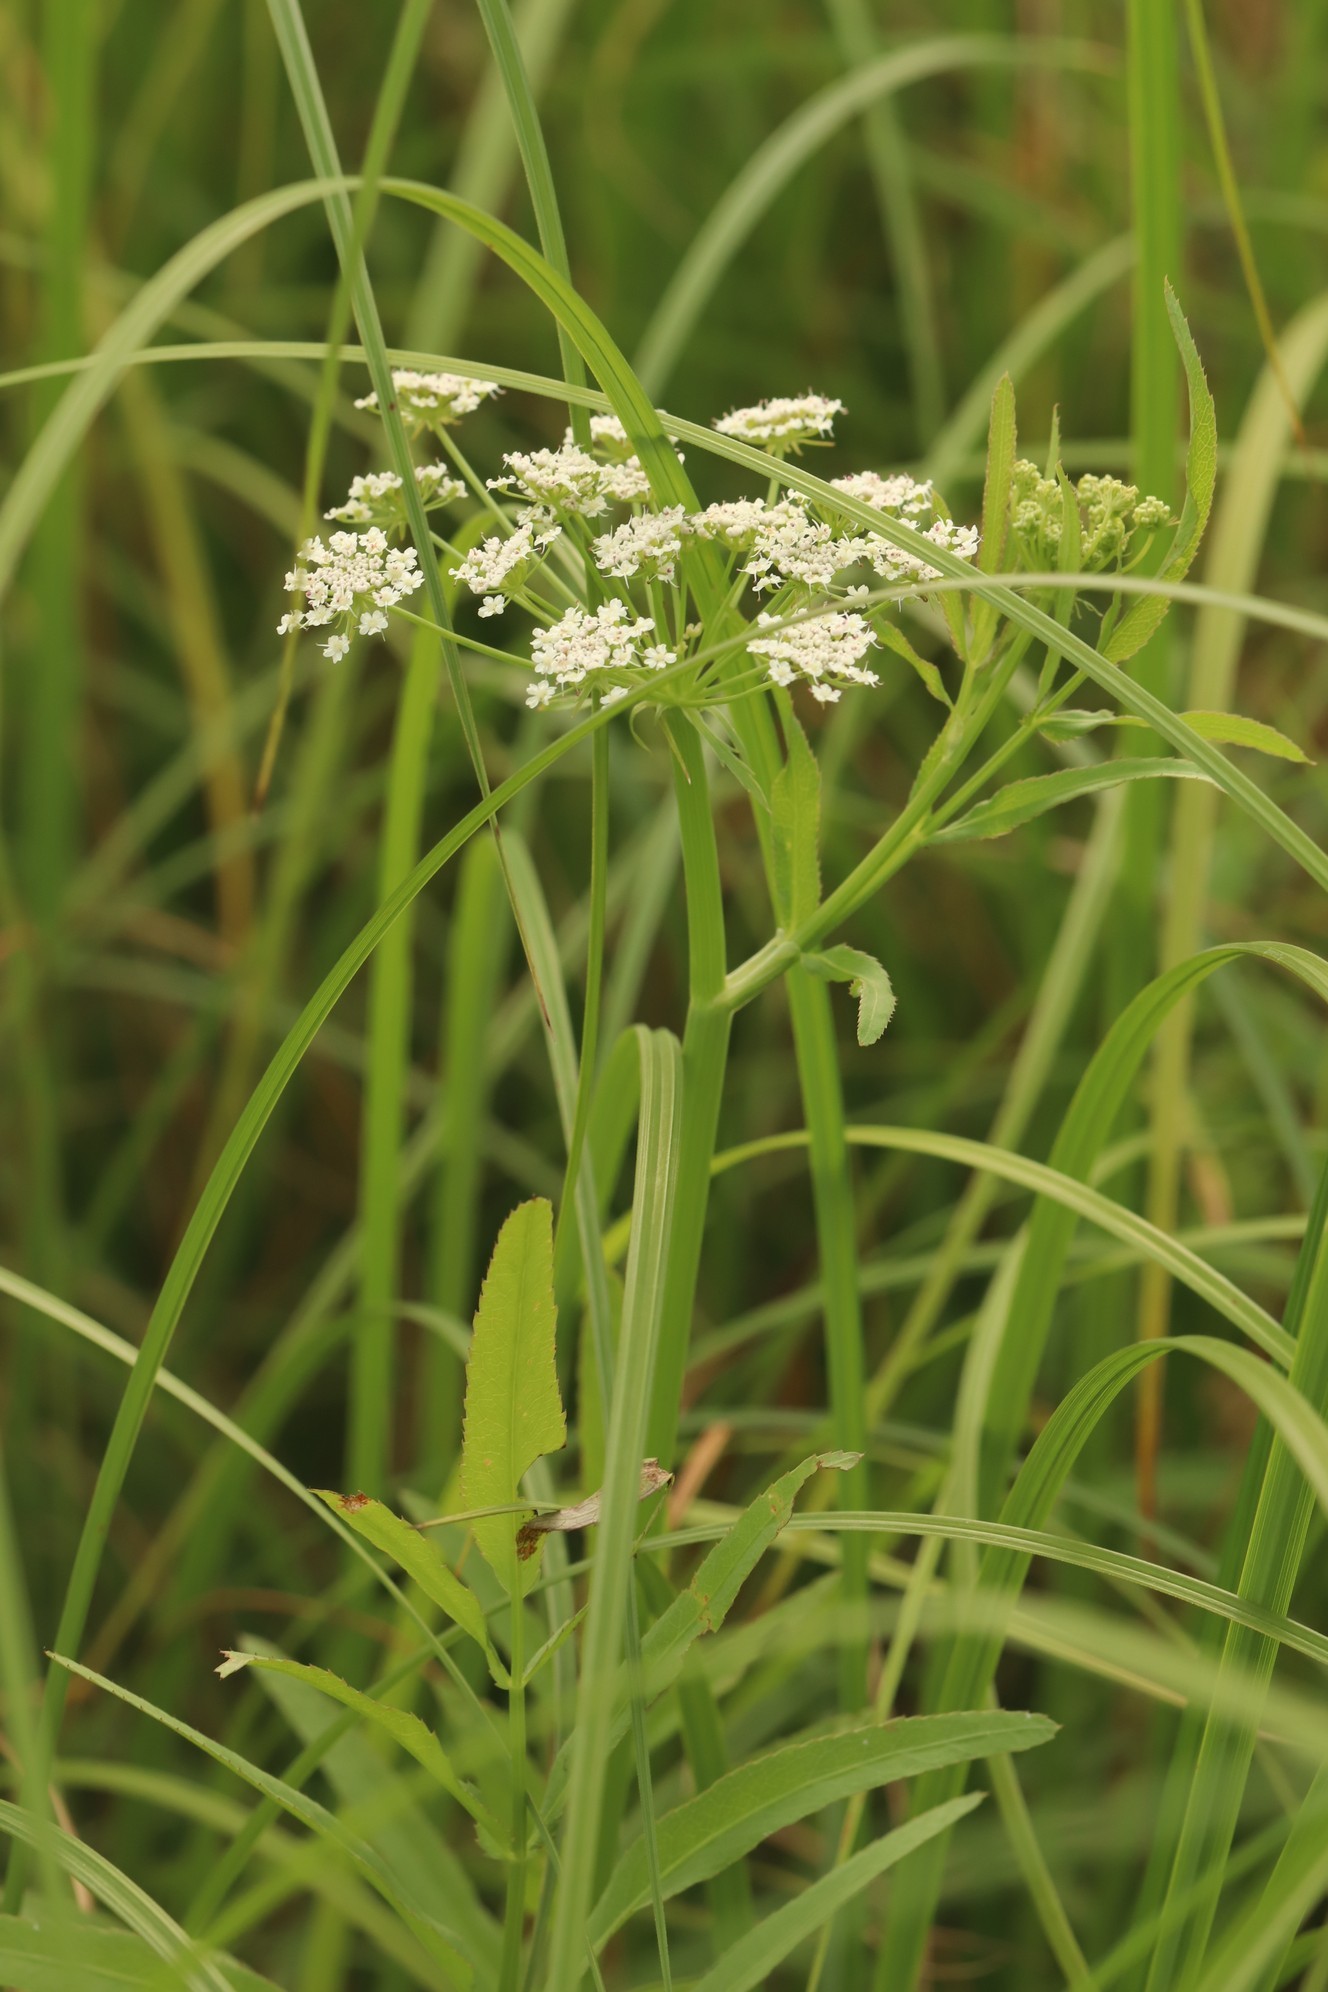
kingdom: Plantae
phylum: Tracheophyta
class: Magnoliopsida
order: Apiales
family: Apiaceae
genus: Sium
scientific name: Sium latifolium
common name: Greater water-parsnip
